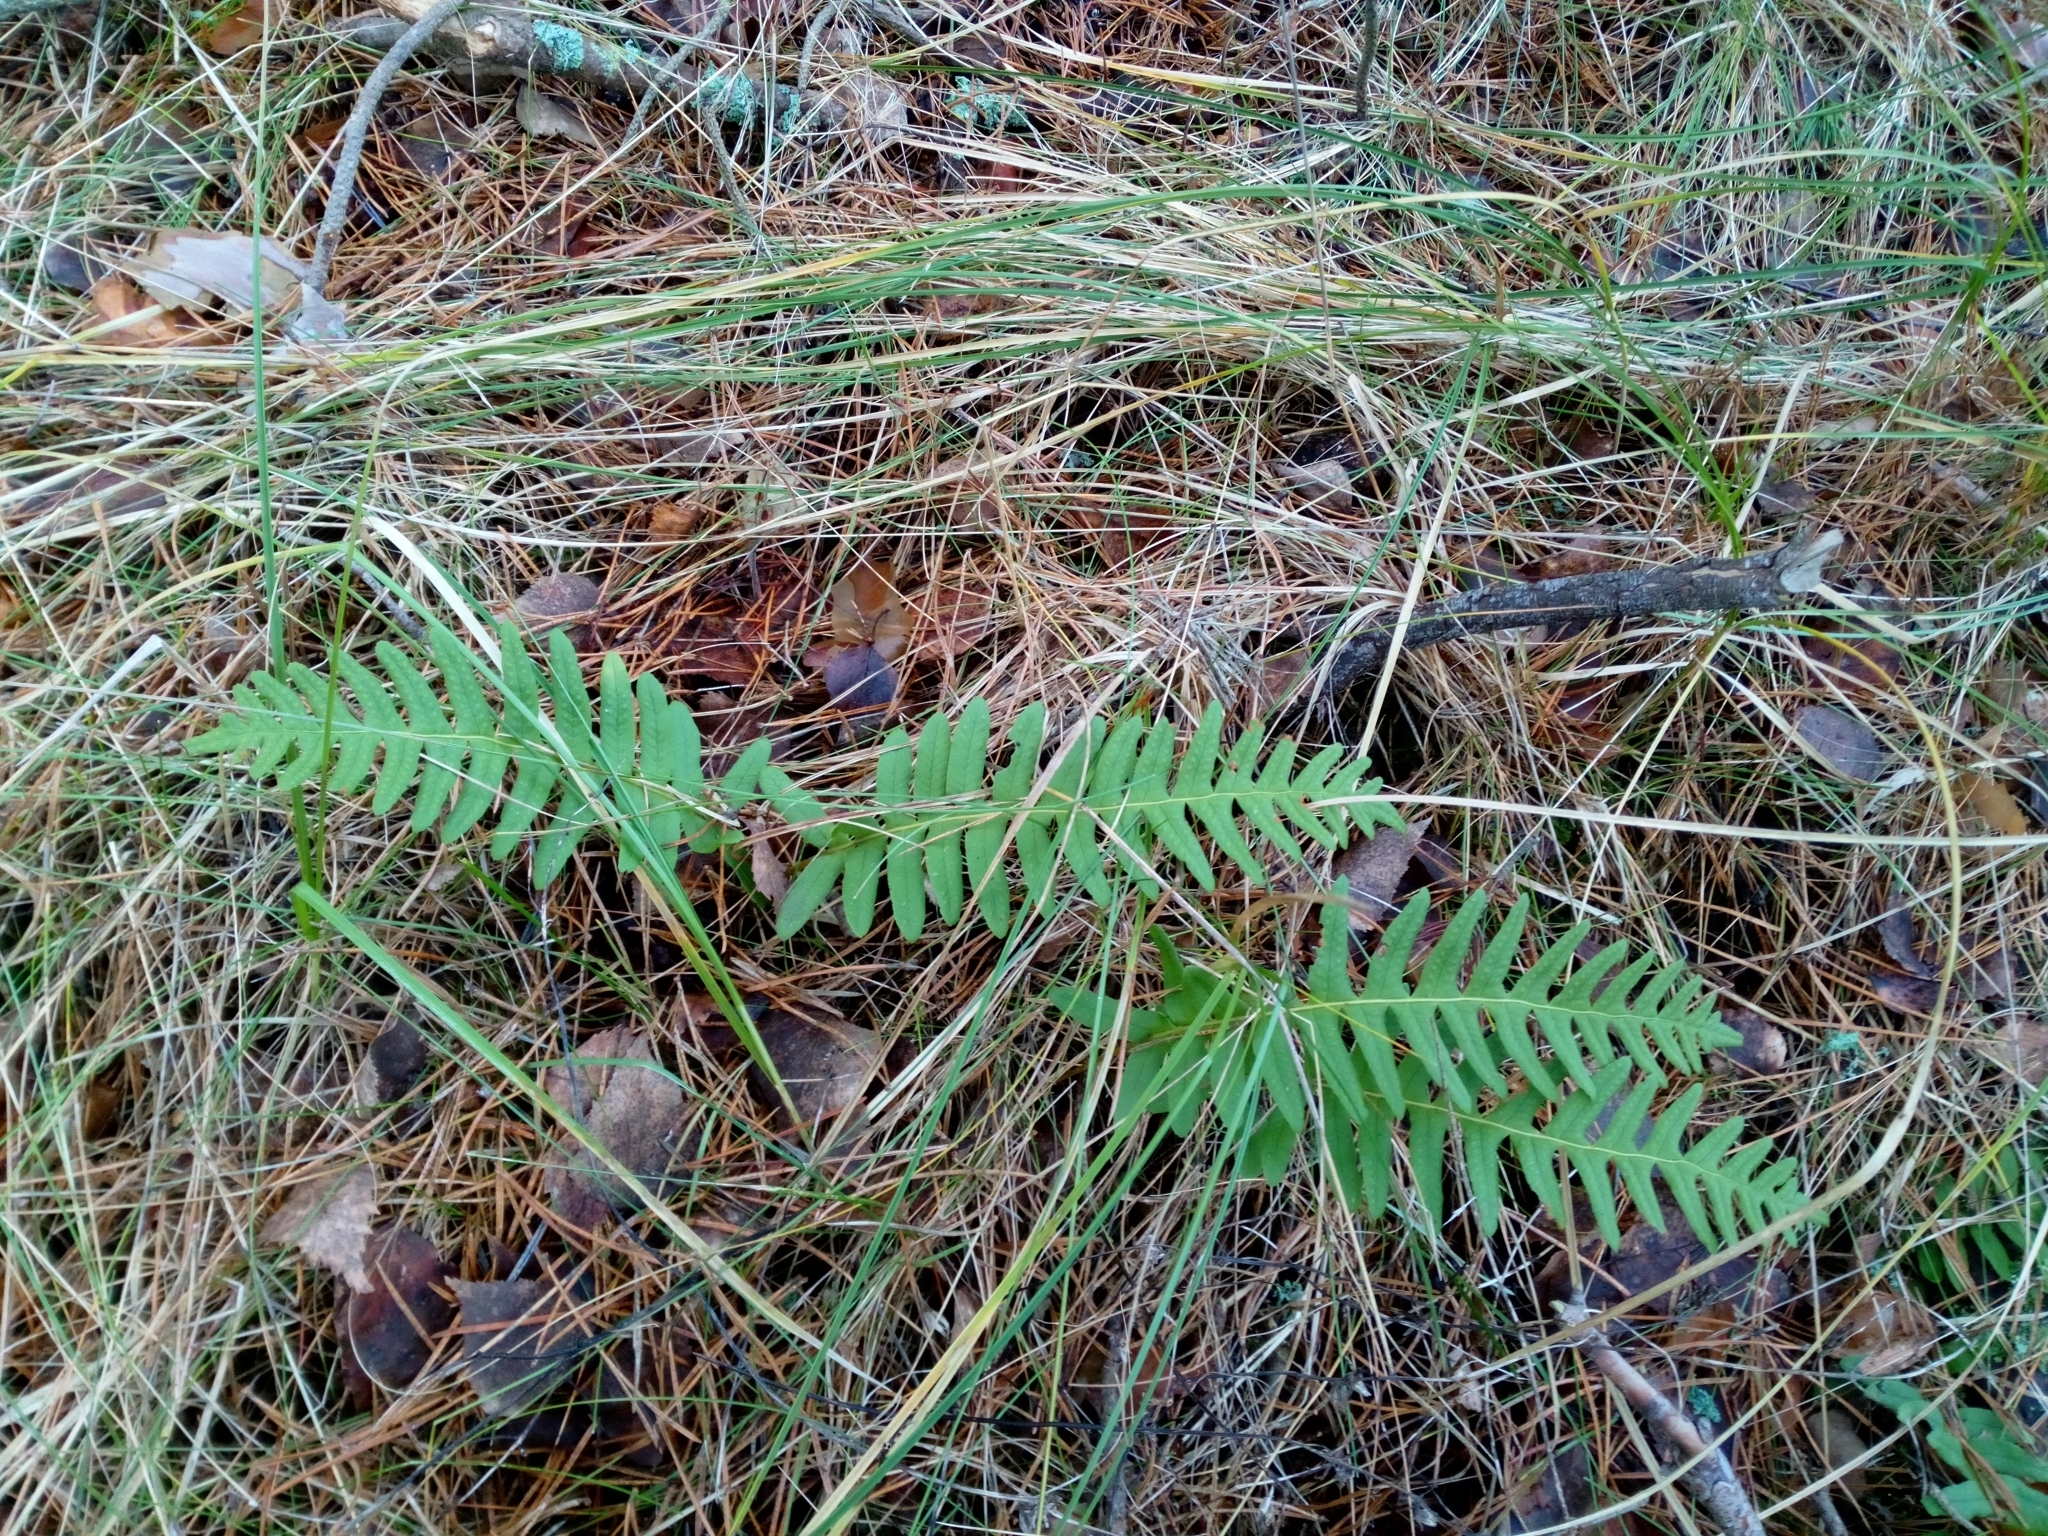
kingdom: Plantae
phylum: Tracheophyta
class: Polypodiopsida
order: Polypodiales
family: Polypodiaceae
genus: Polypodium
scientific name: Polypodium vulgare
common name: Common polypody
